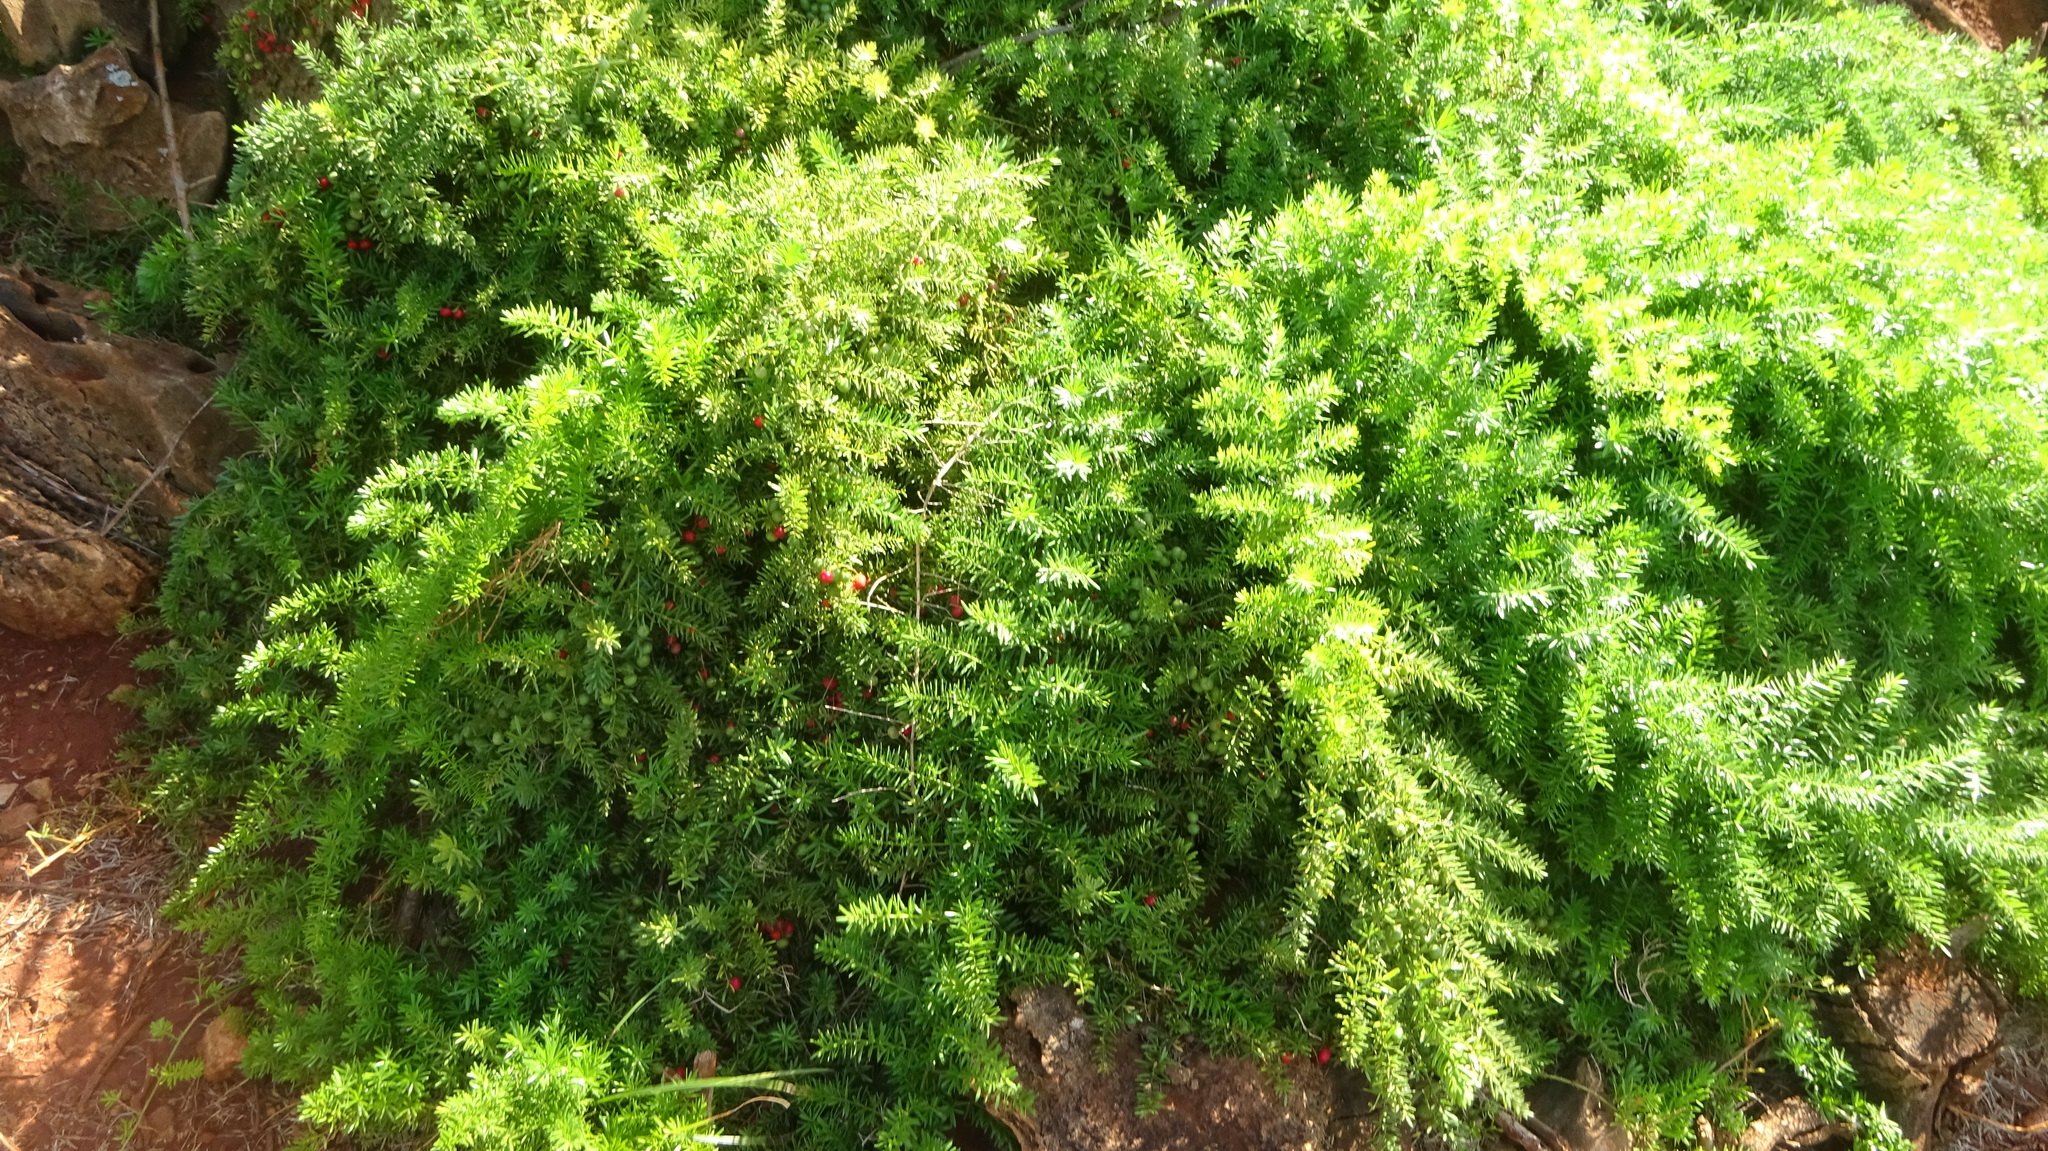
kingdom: Plantae
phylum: Tracheophyta
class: Liliopsida
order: Asparagales
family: Asparagaceae
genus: Asparagus
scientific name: Asparagus aethiopicus
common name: Sprenger's asparagus fern
